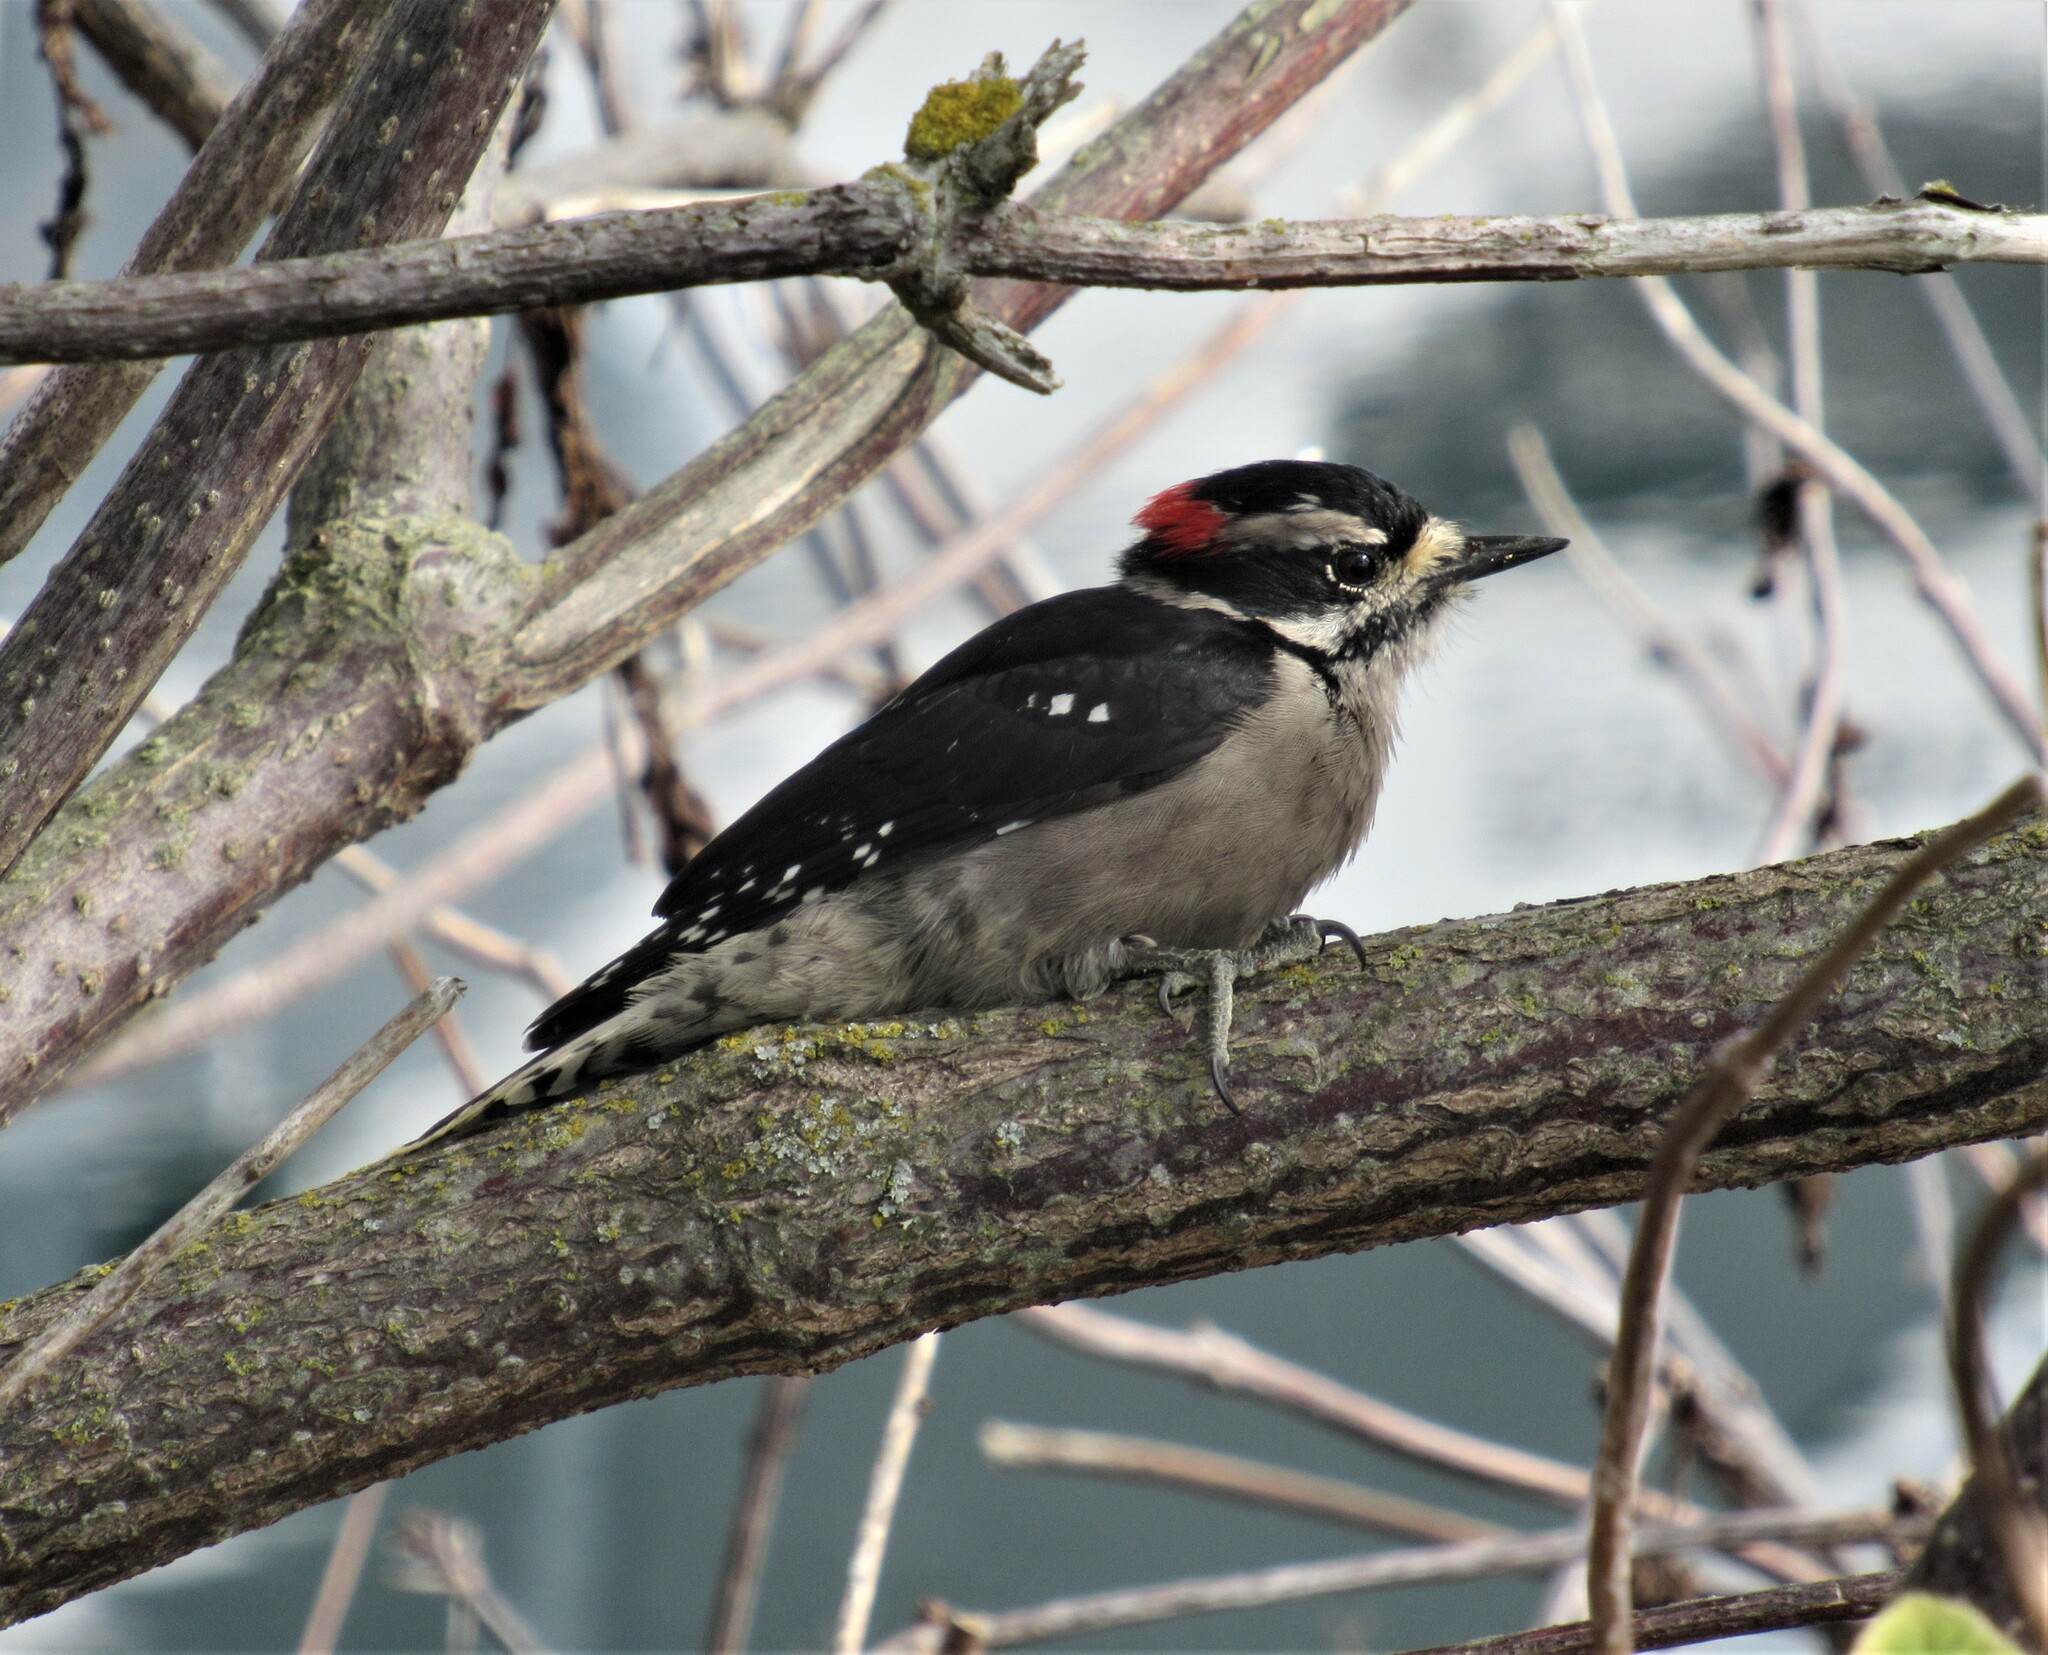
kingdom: Animalia
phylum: Chordata
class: Aves
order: Piciformes
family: Picidae
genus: Dryobates
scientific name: Dryobates pubescens
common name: Downy woodpecker
